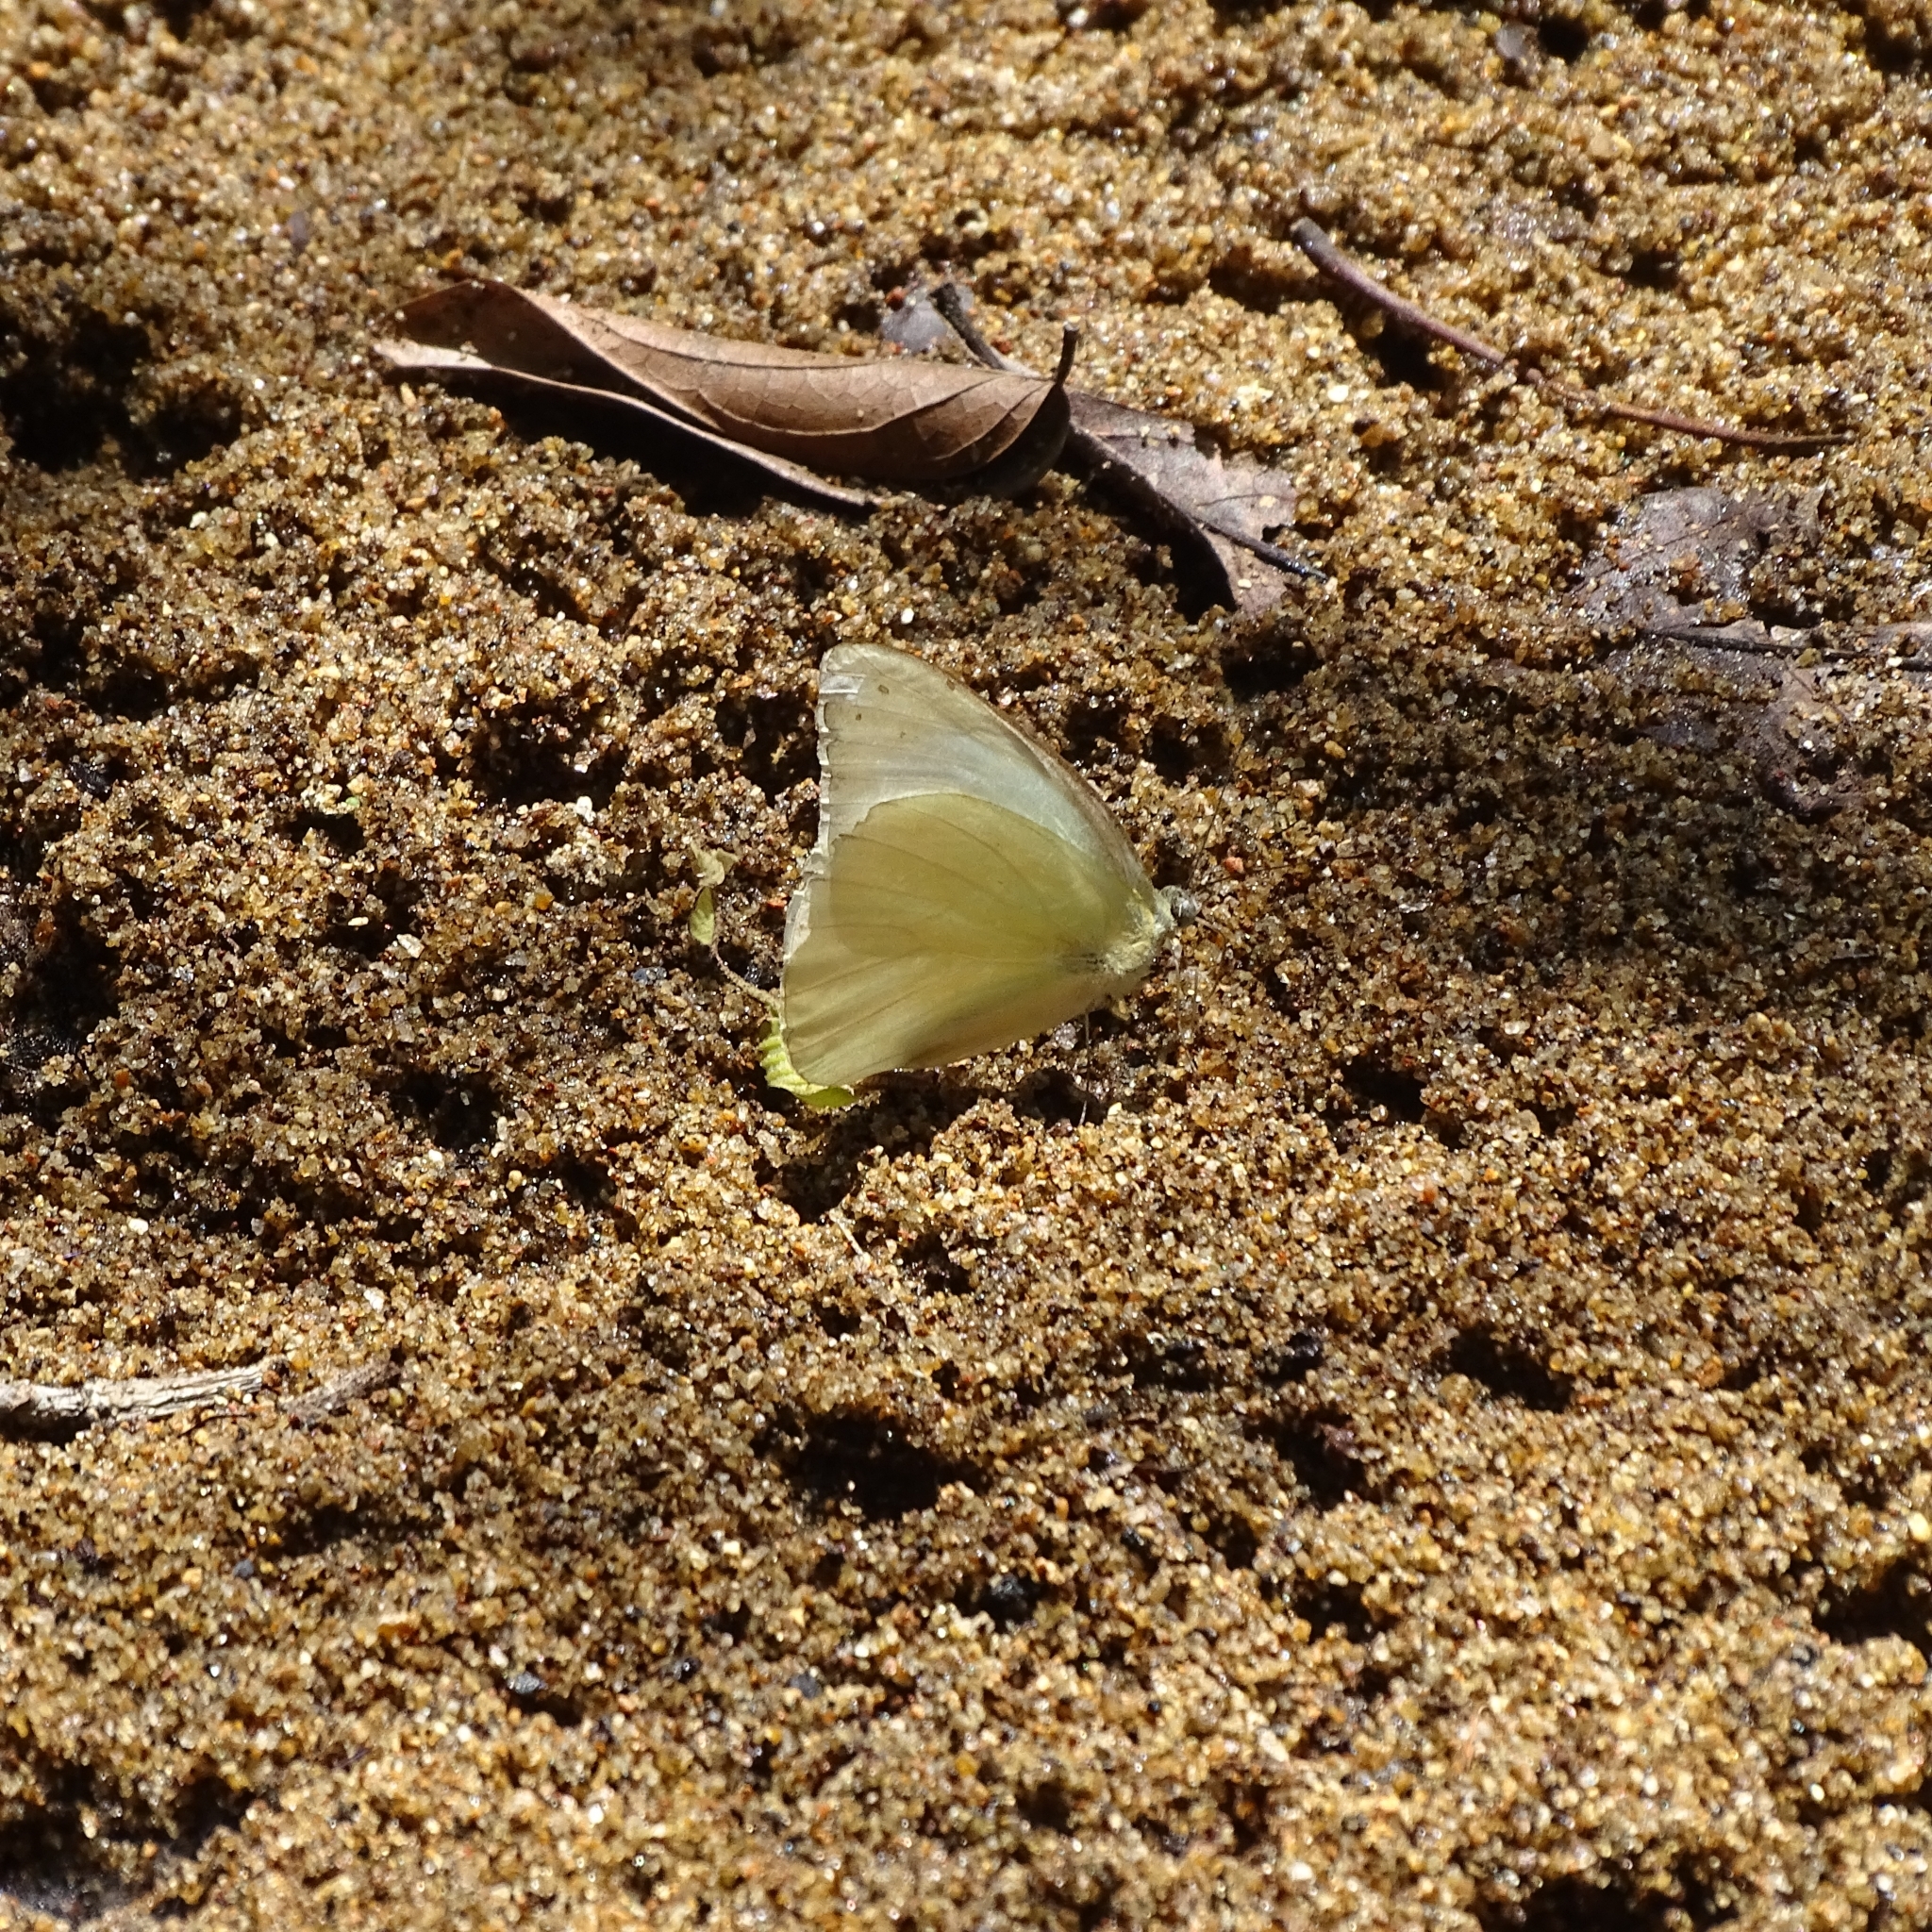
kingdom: Animalia
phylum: Arthropoda
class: Insecta
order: Lepidoptera
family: Pieridae
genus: Appias
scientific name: Appias albina
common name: Common albatross
